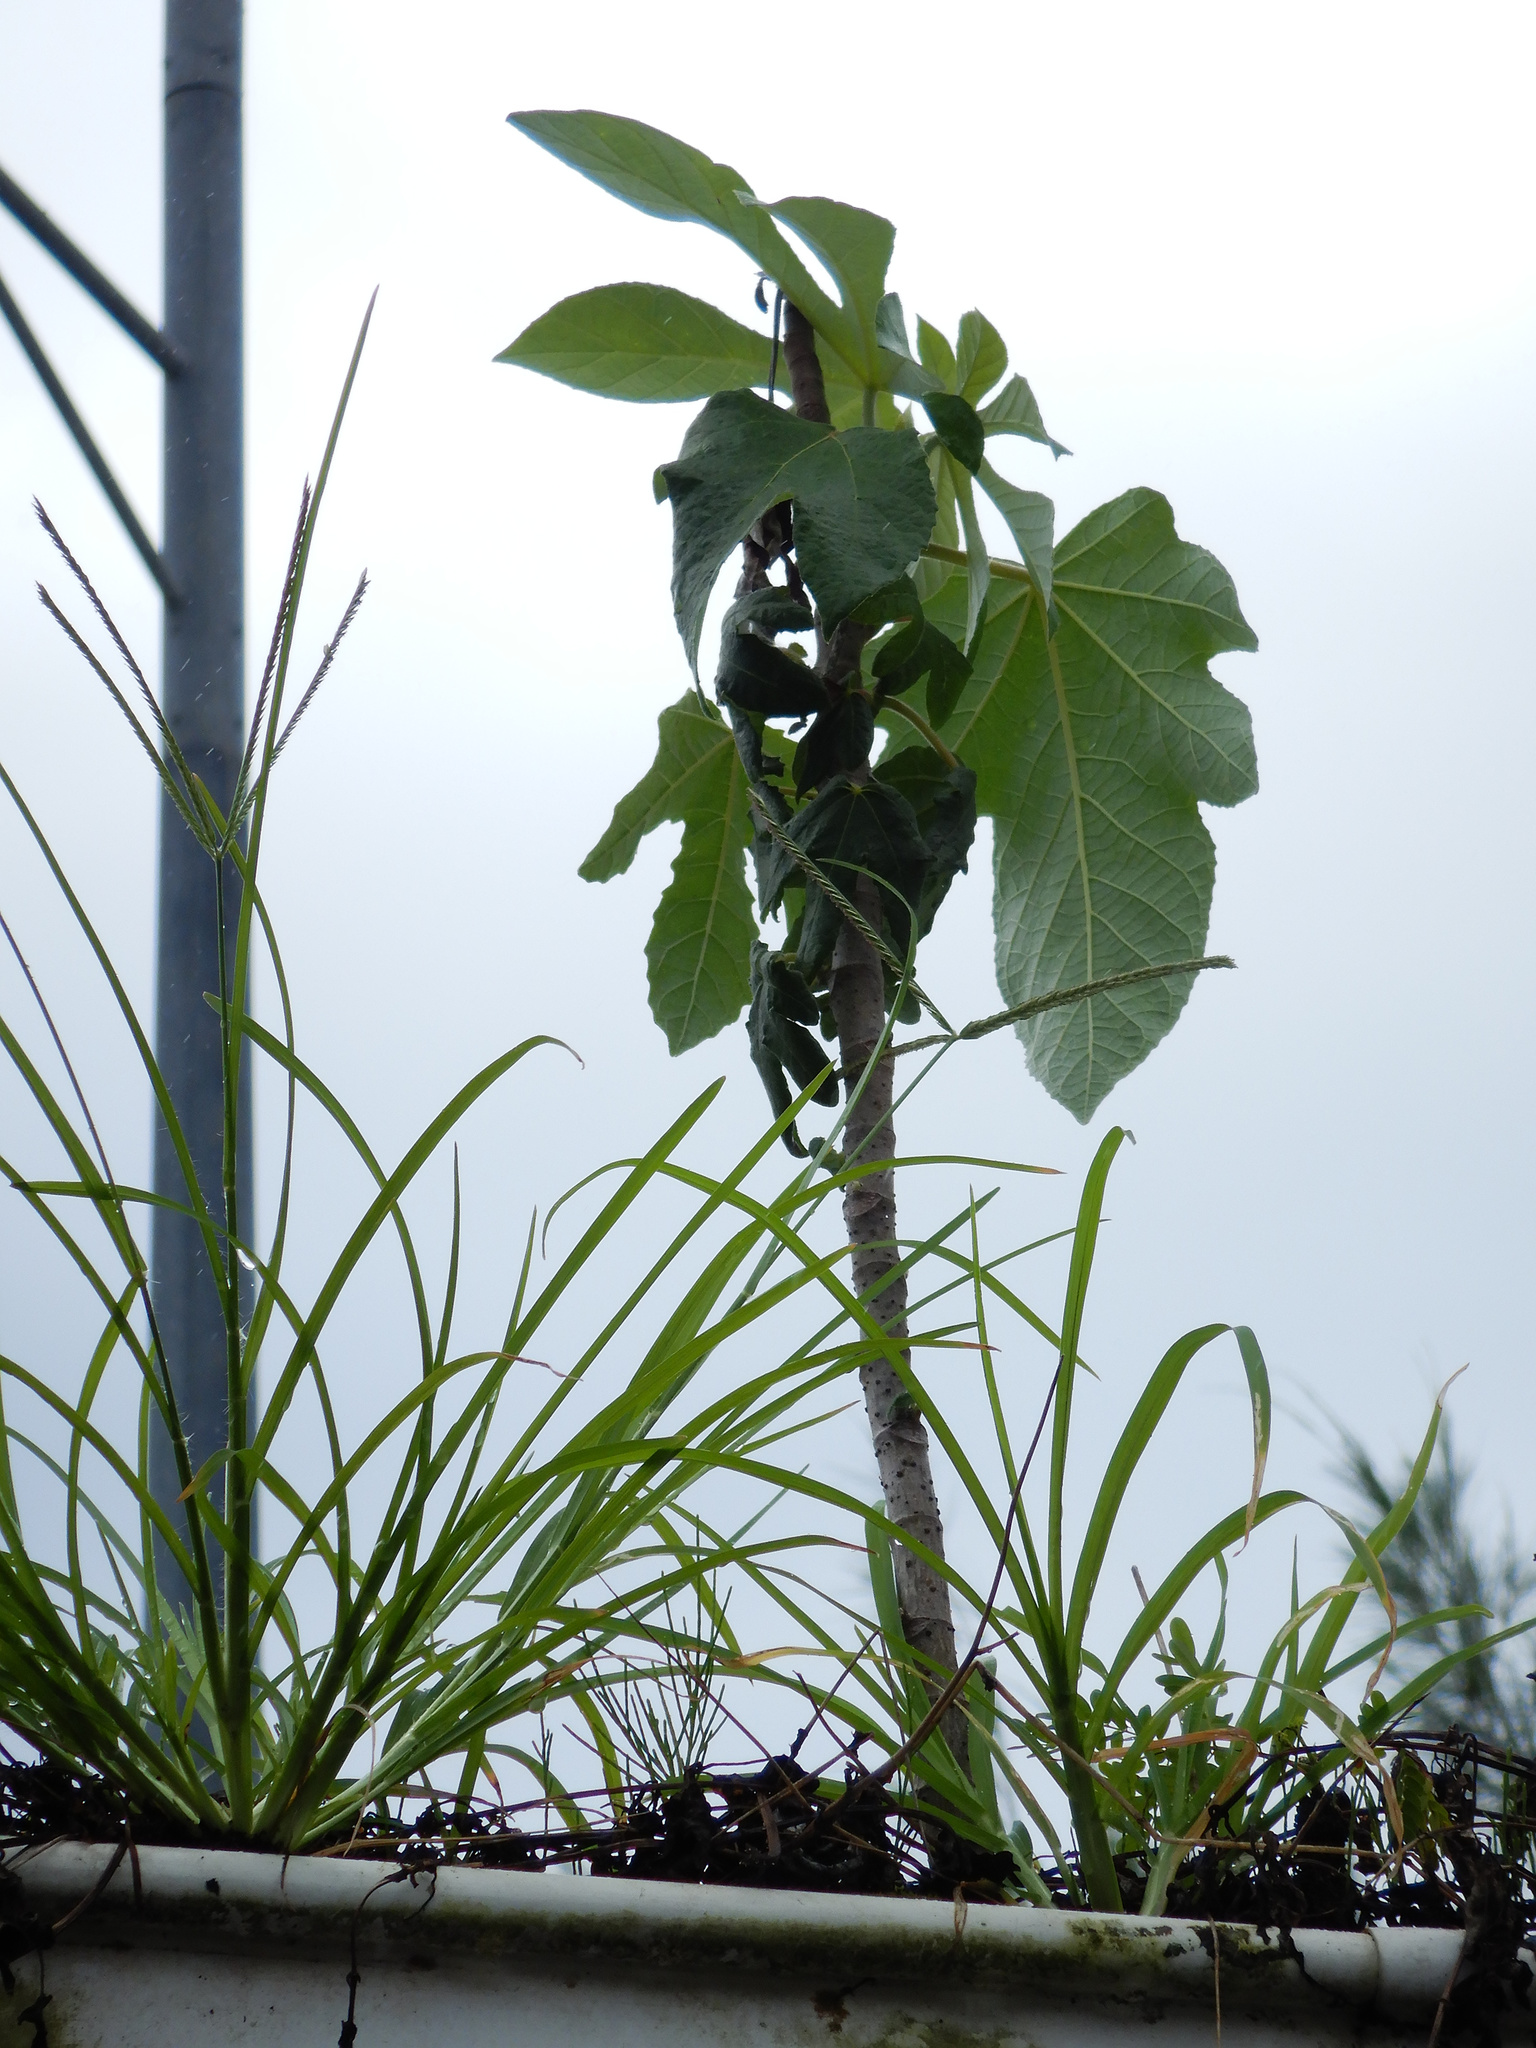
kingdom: Plantae
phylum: Tracheophyta
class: Magnoliopsida
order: Rosales
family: Urticaceae
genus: Cecropia
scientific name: Cecropia pachystachya
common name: Ambay pumpwood
